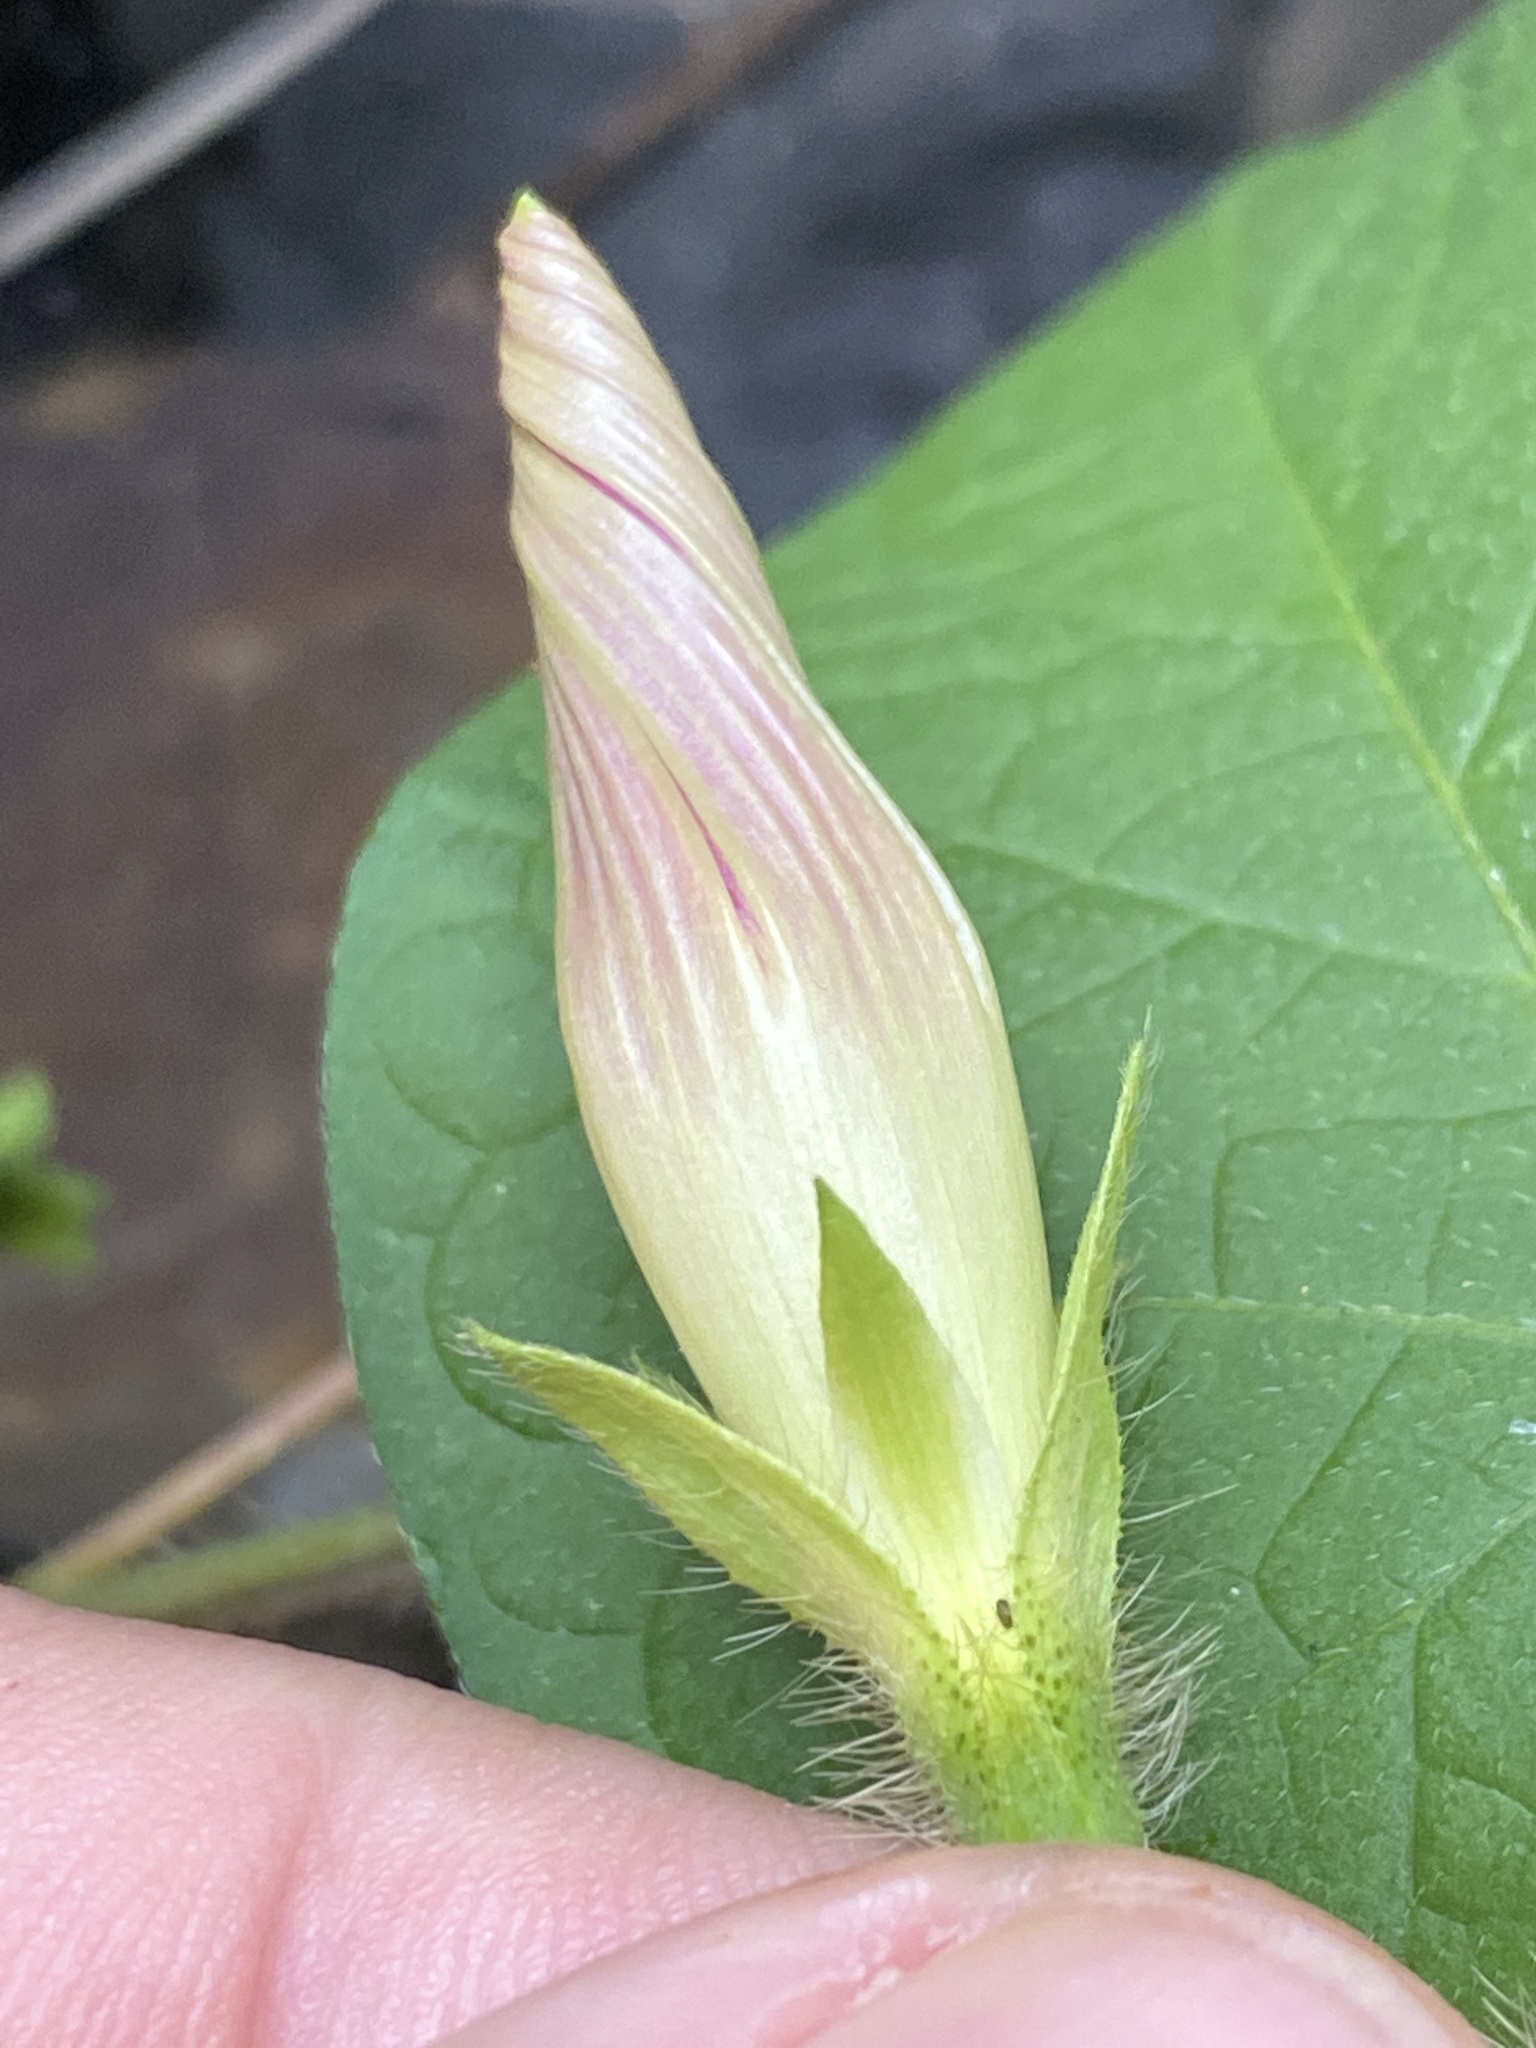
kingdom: Plantae
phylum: Tracheophyta
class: Magnoliopsida
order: Solanales
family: Convolvulaceae
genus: Ipomoea
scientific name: Ipomoea purpurea
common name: Common morning-glory
